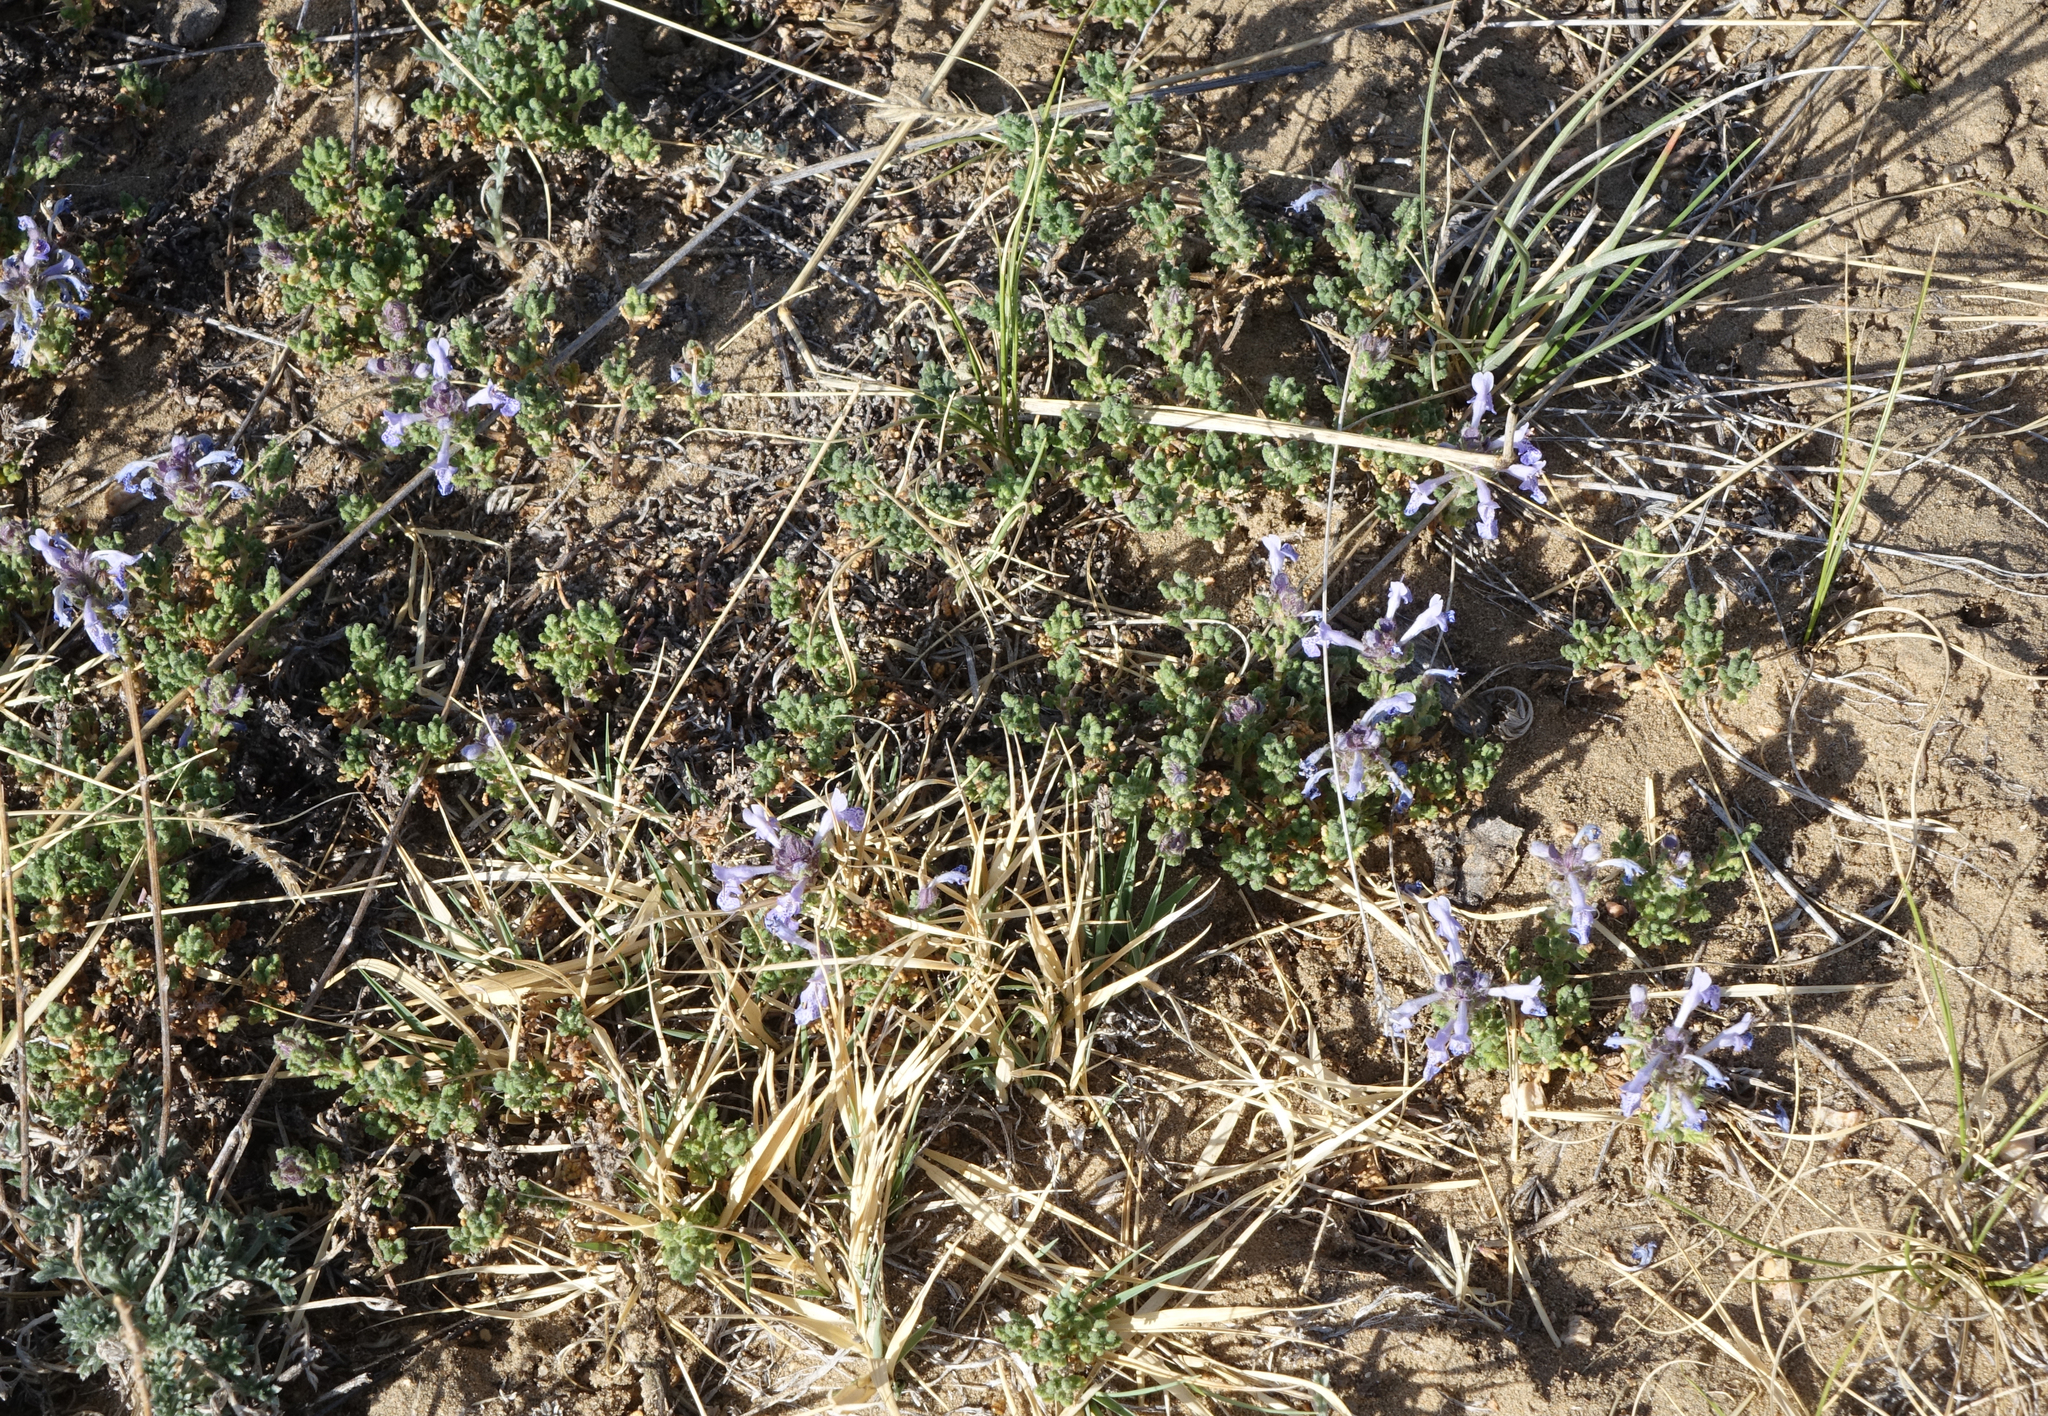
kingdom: Plantae
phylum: Tracheophyta
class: Magnoliopsida
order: Lamiales
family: Lamiaceae
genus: Dracocephalum
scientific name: Dracocephalum origanoides
